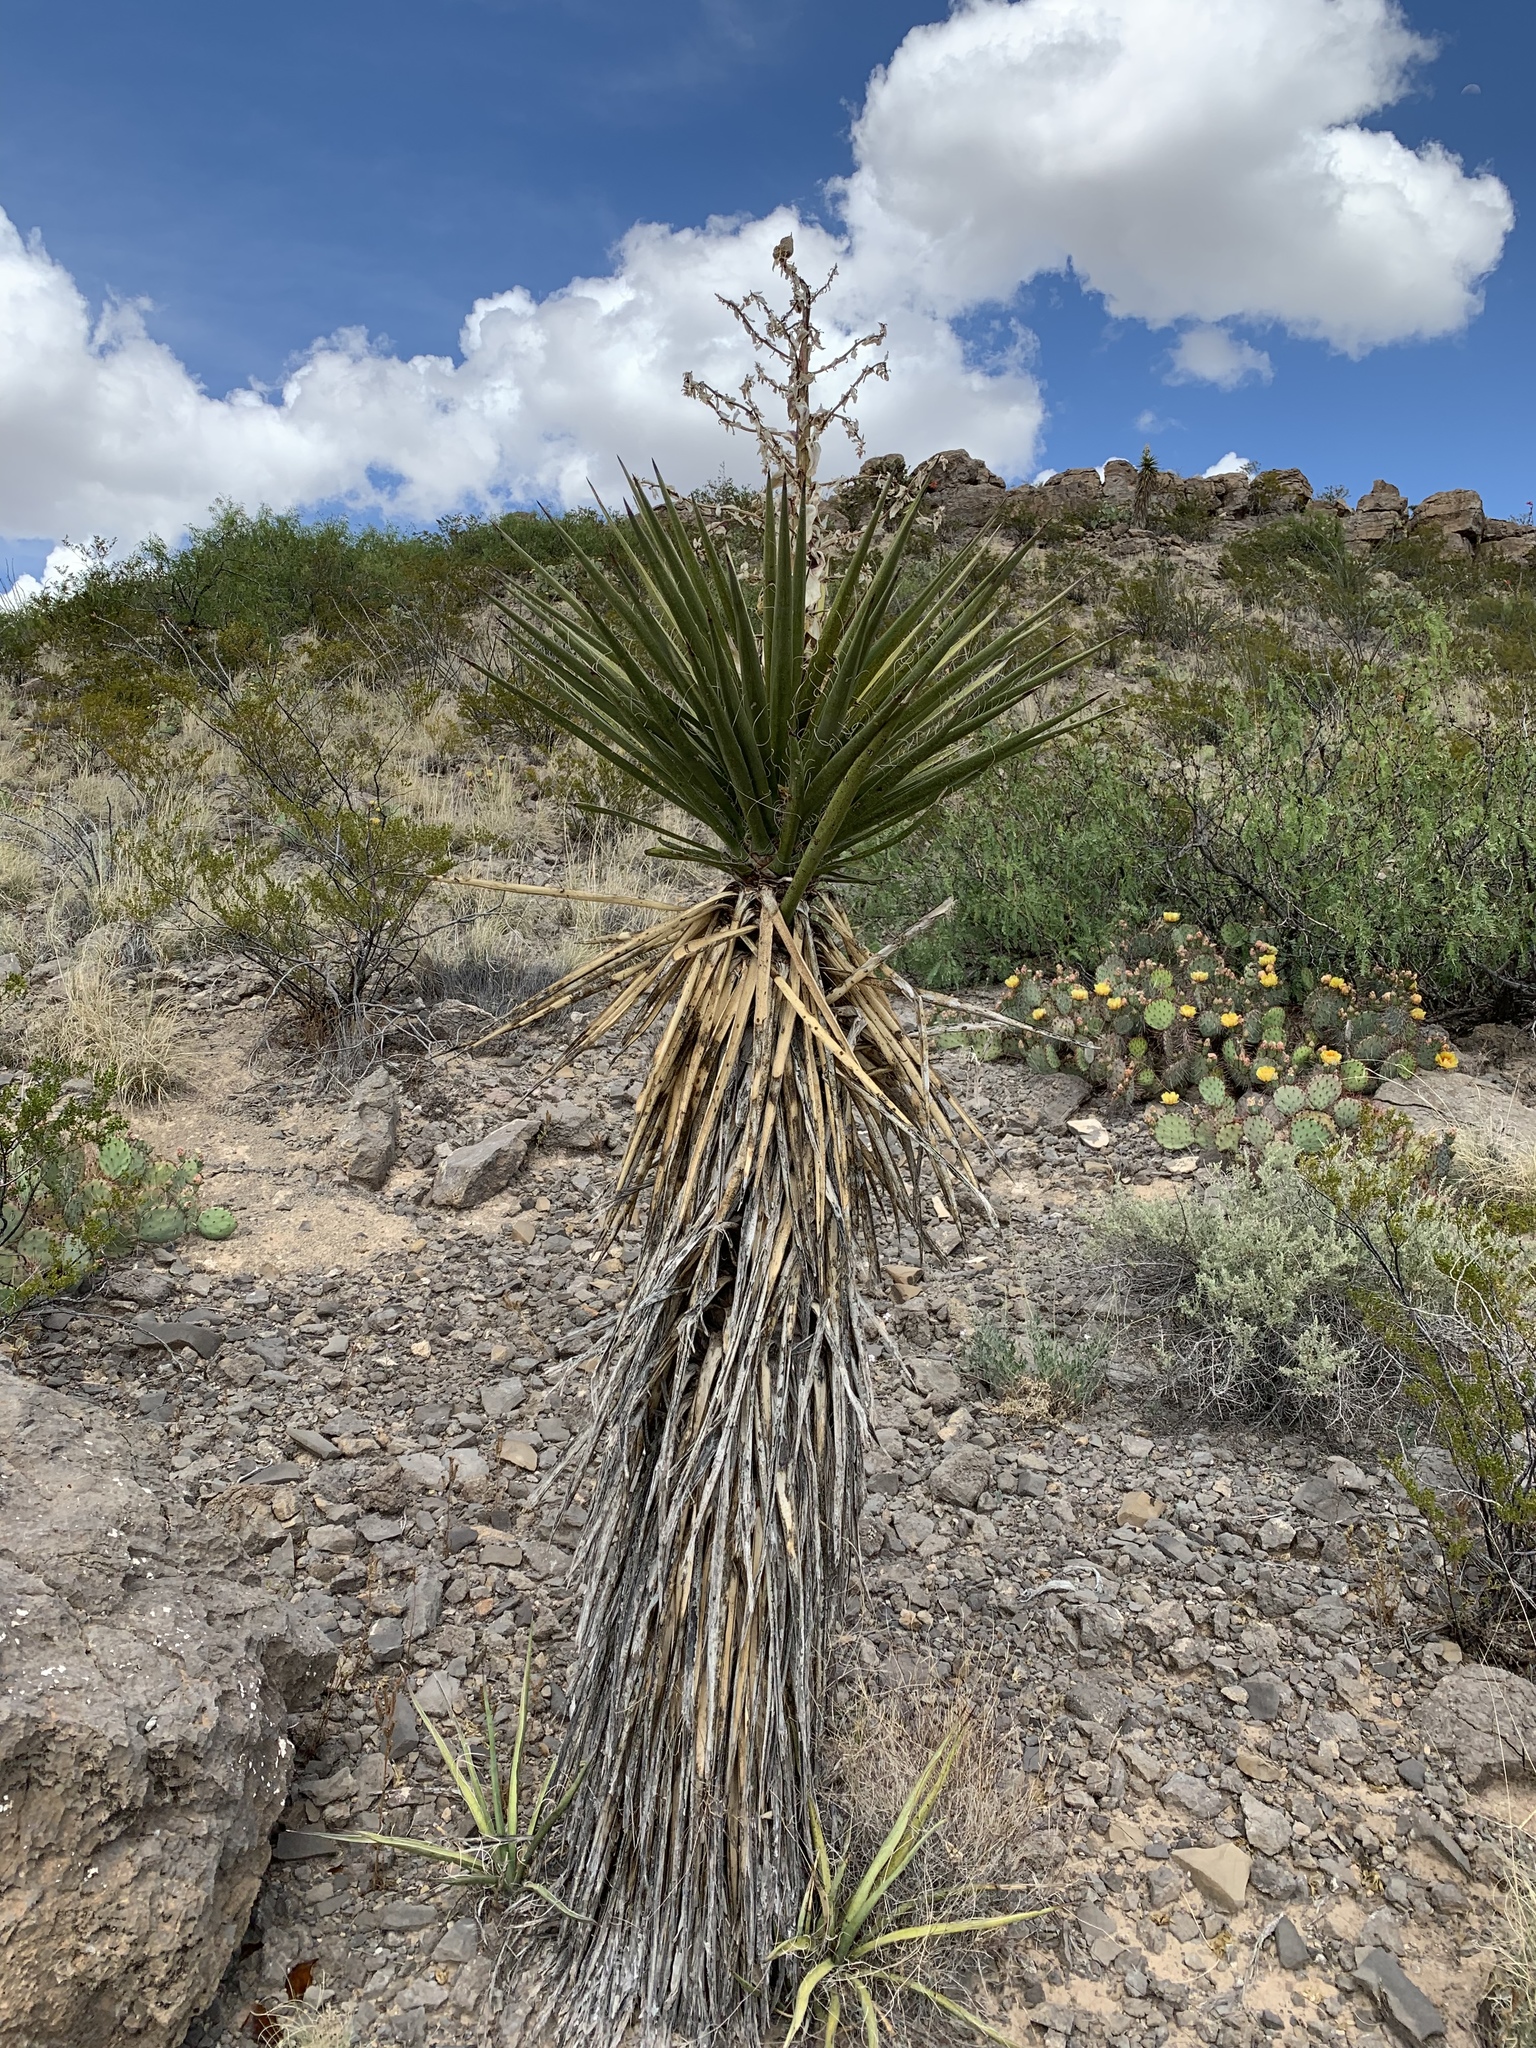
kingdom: Plantae
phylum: Tracheophyta
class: Liliopsida
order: Asparagales
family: Asparagaceae
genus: Yucca
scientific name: Yucca treculiana
